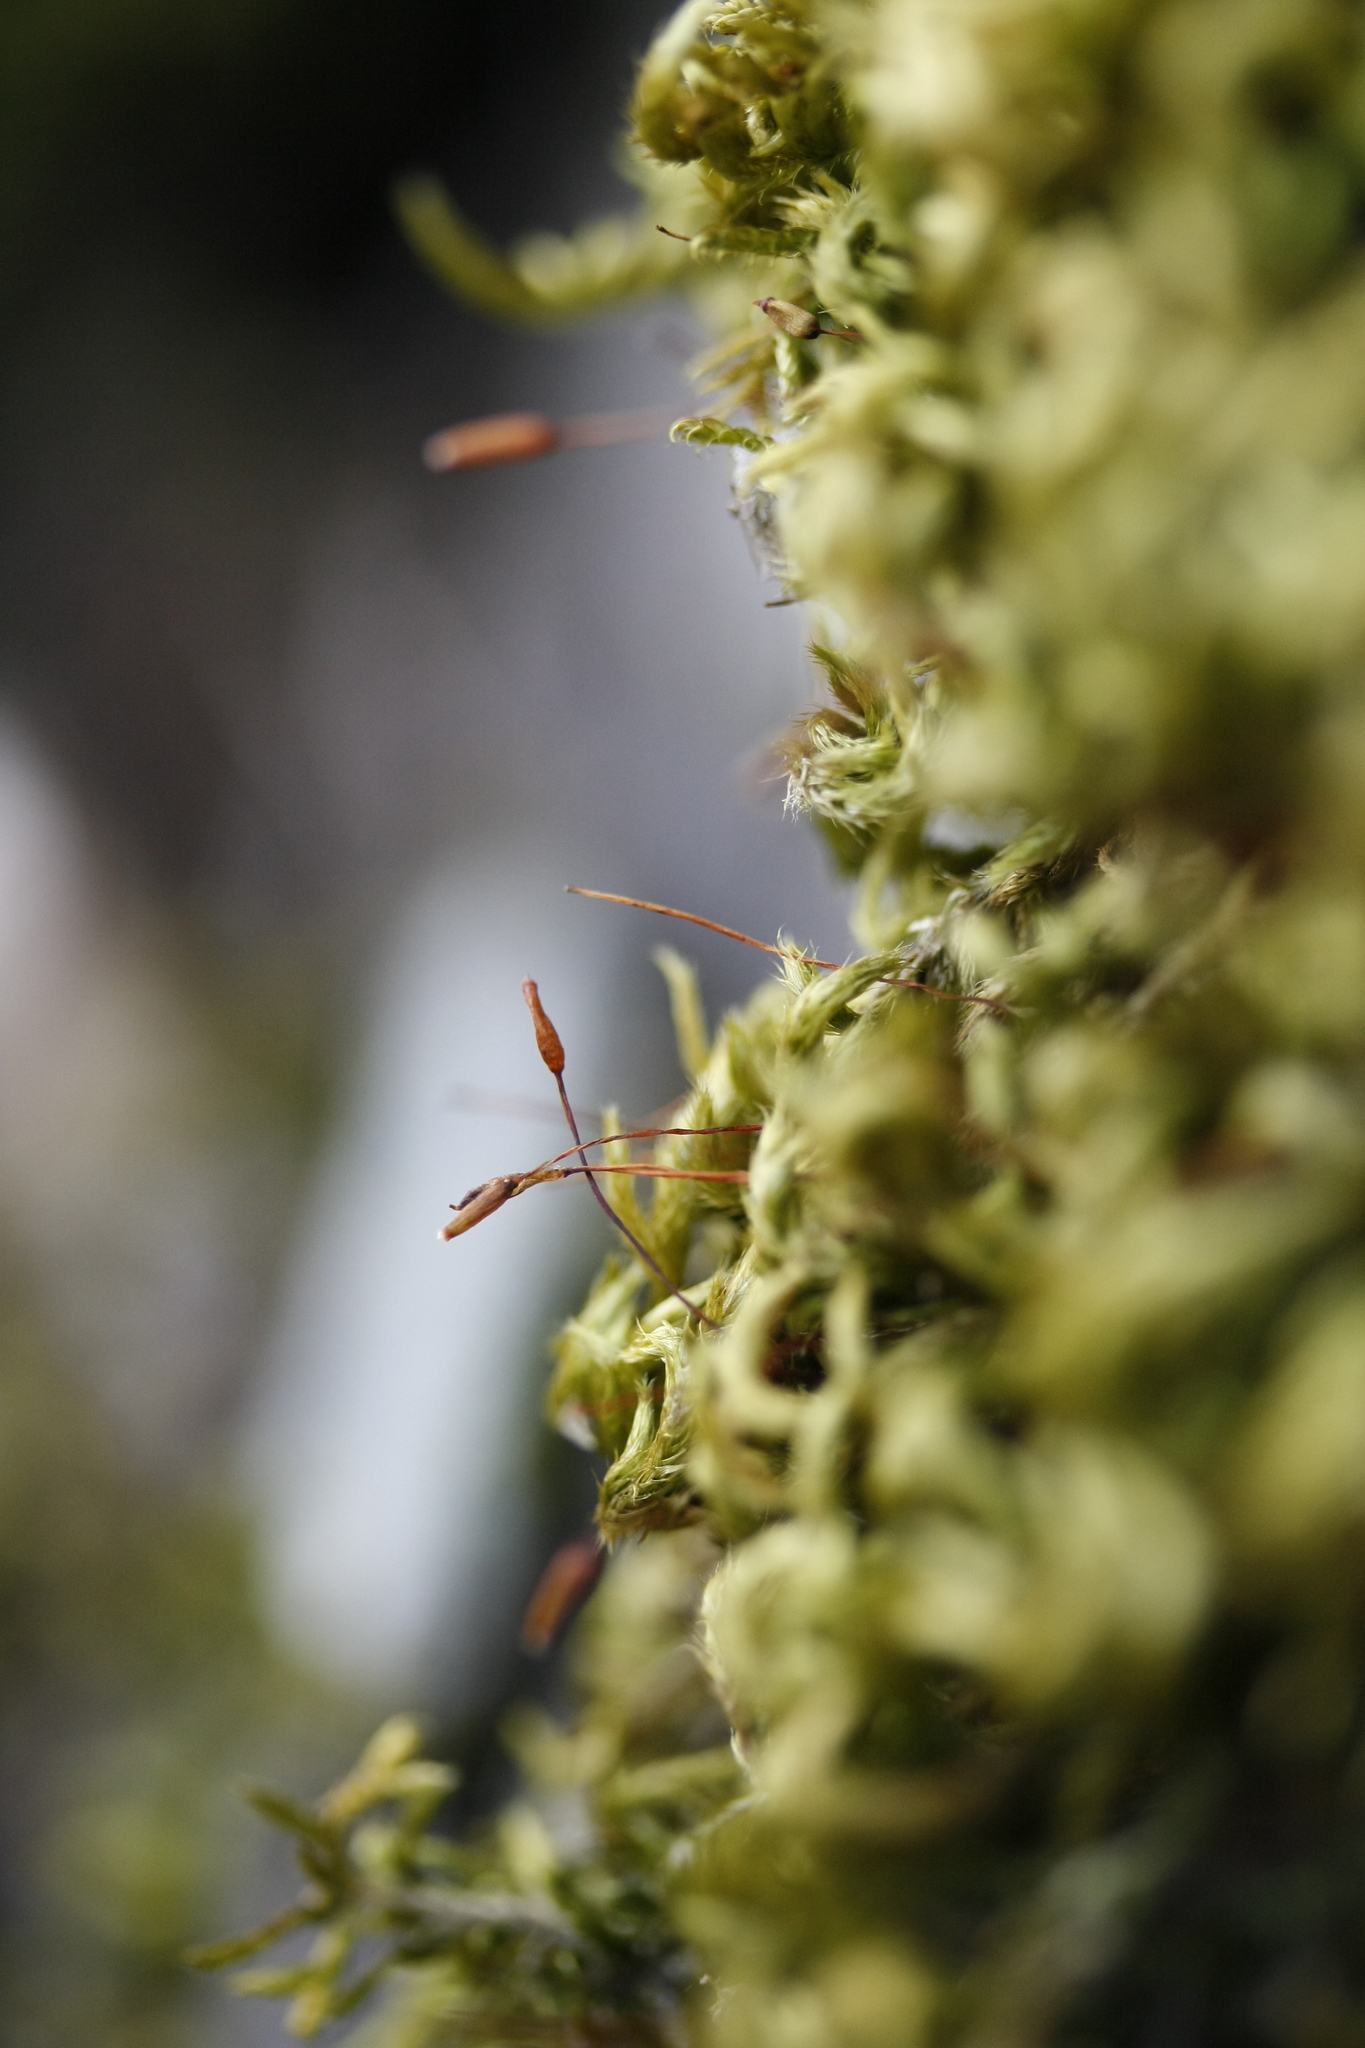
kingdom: Plantae
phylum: Bryophyta
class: Bryopsida
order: Hypnales
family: Brachytheciaceae
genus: Homalothecium
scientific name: Homalothecium sericeum
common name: Silky wall feather-moss
